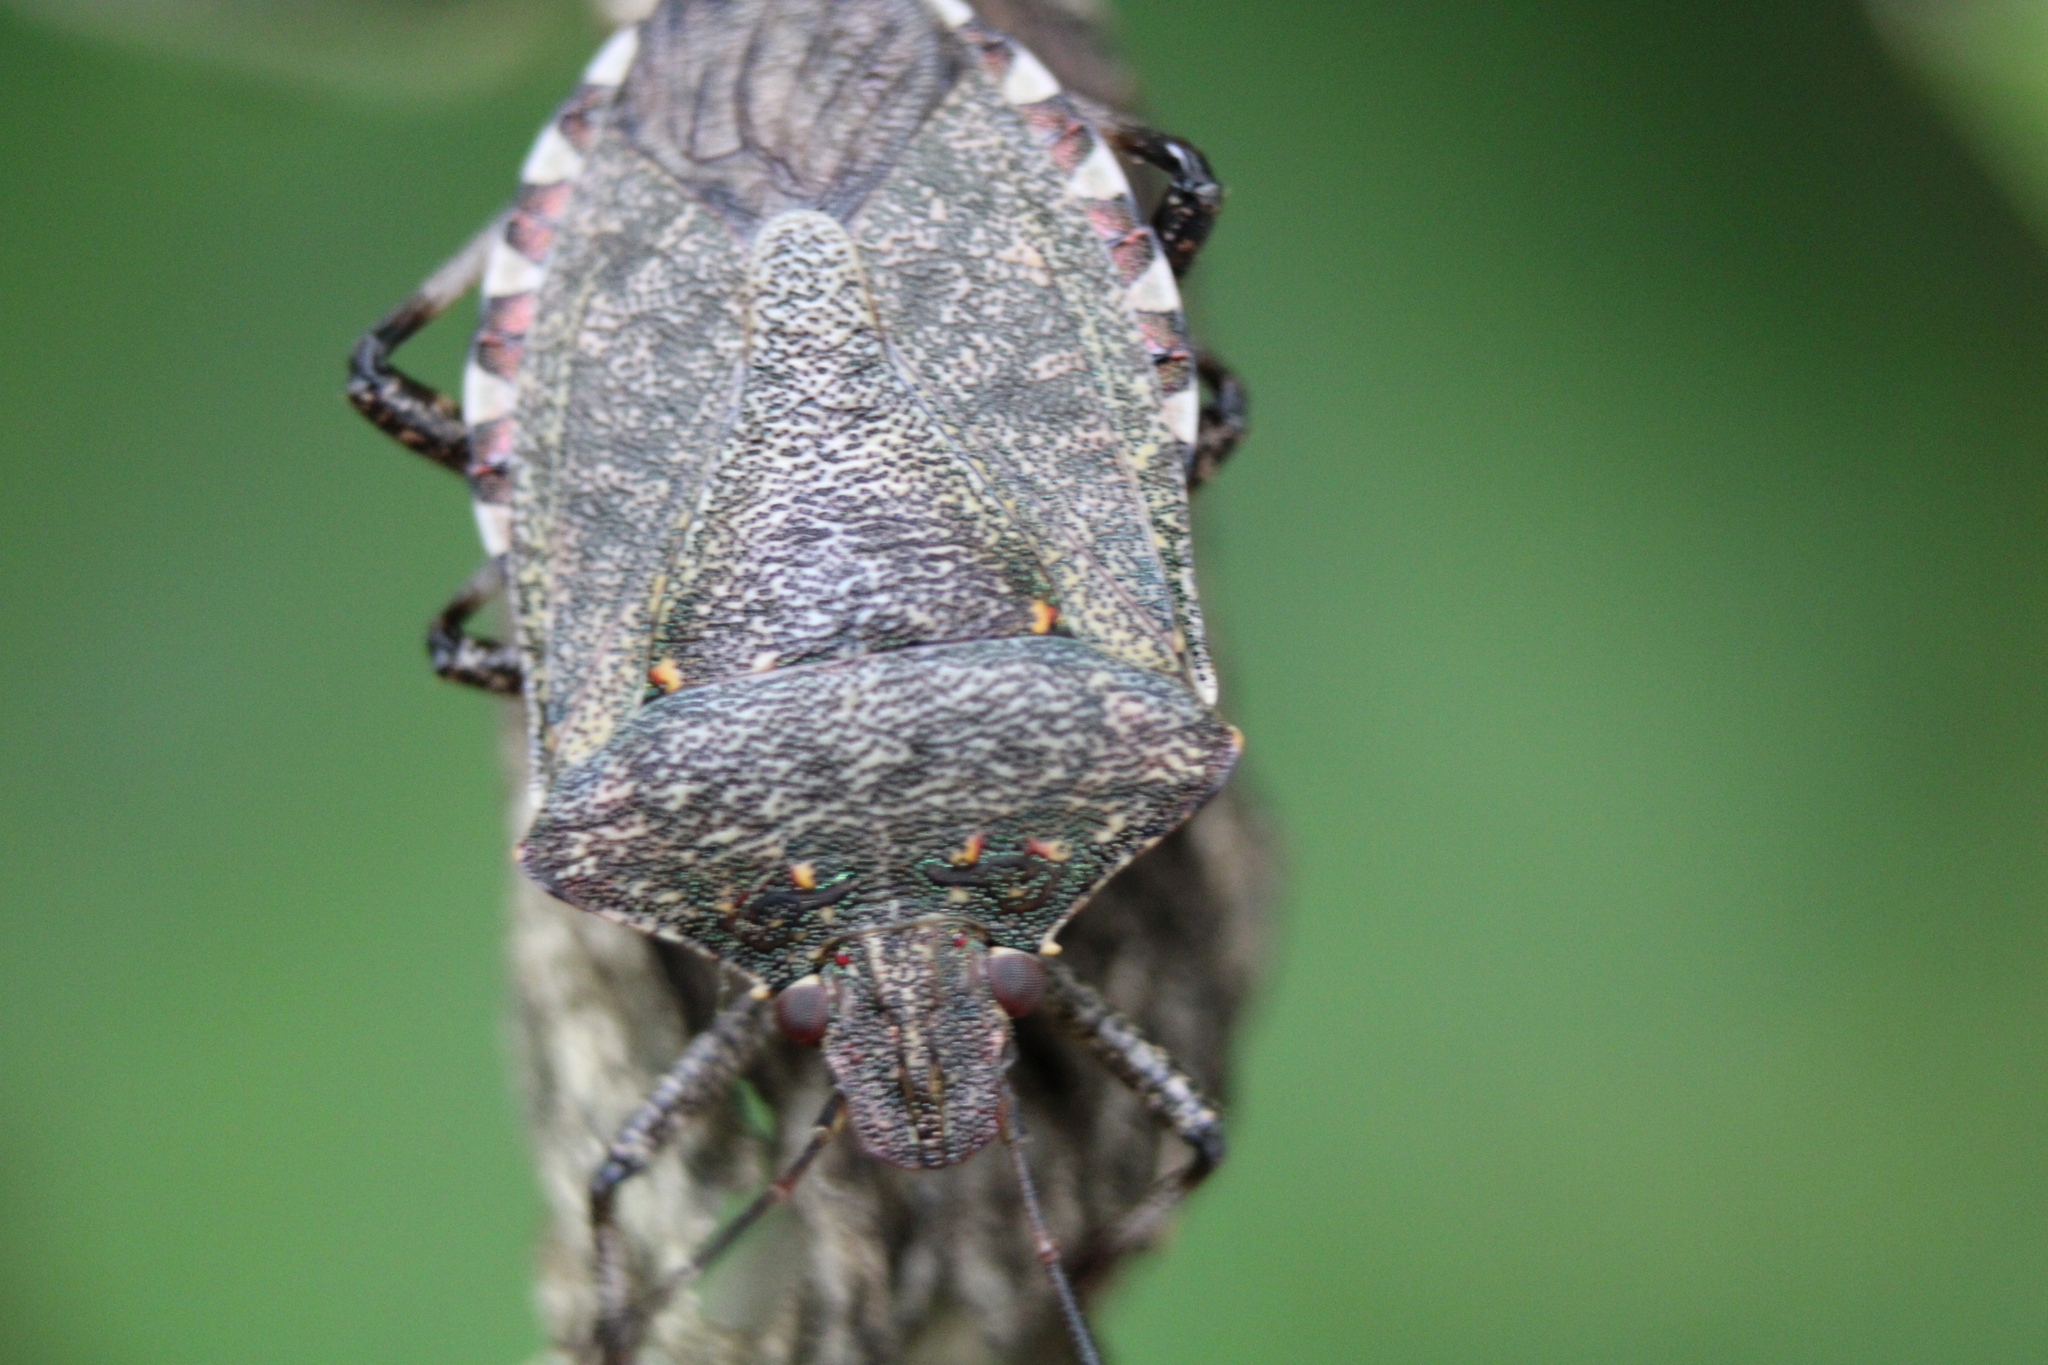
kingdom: Animalia
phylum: Arthropoda
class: Insecta
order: Hemiptera
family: Pentatomidae
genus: Halyomorpha
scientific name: Halyomorpha halys
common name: Brown marmorated stink bug
